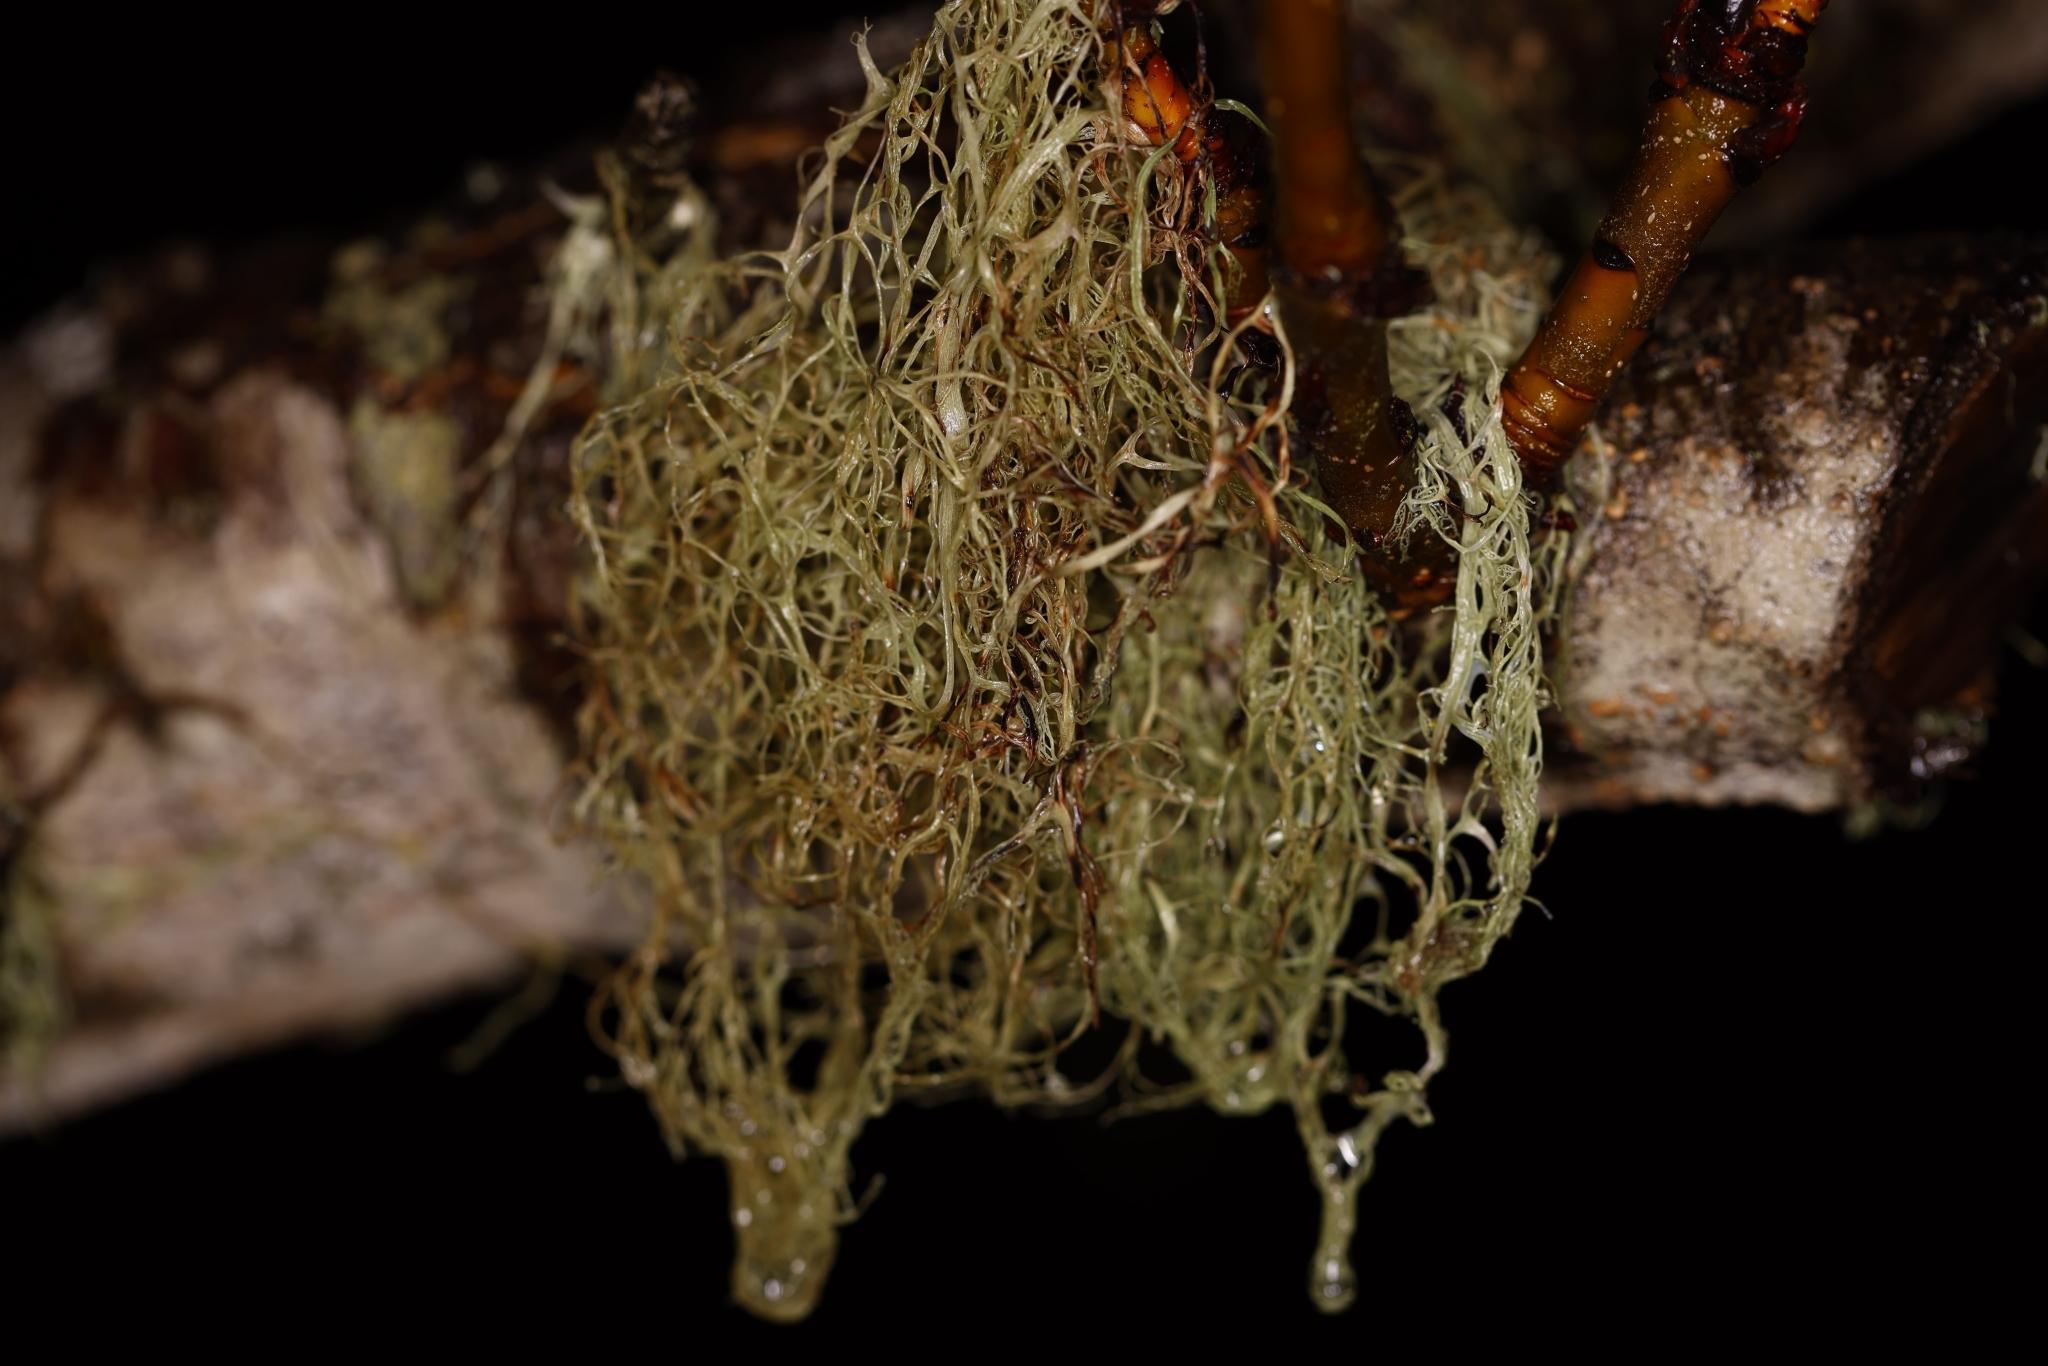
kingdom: Fungi
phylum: Ascomycota
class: Lecanoromycetes
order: Lecanorales
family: Ramalinaceae
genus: Ramalina
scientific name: Ramalina menziesii
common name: Lace lichen
